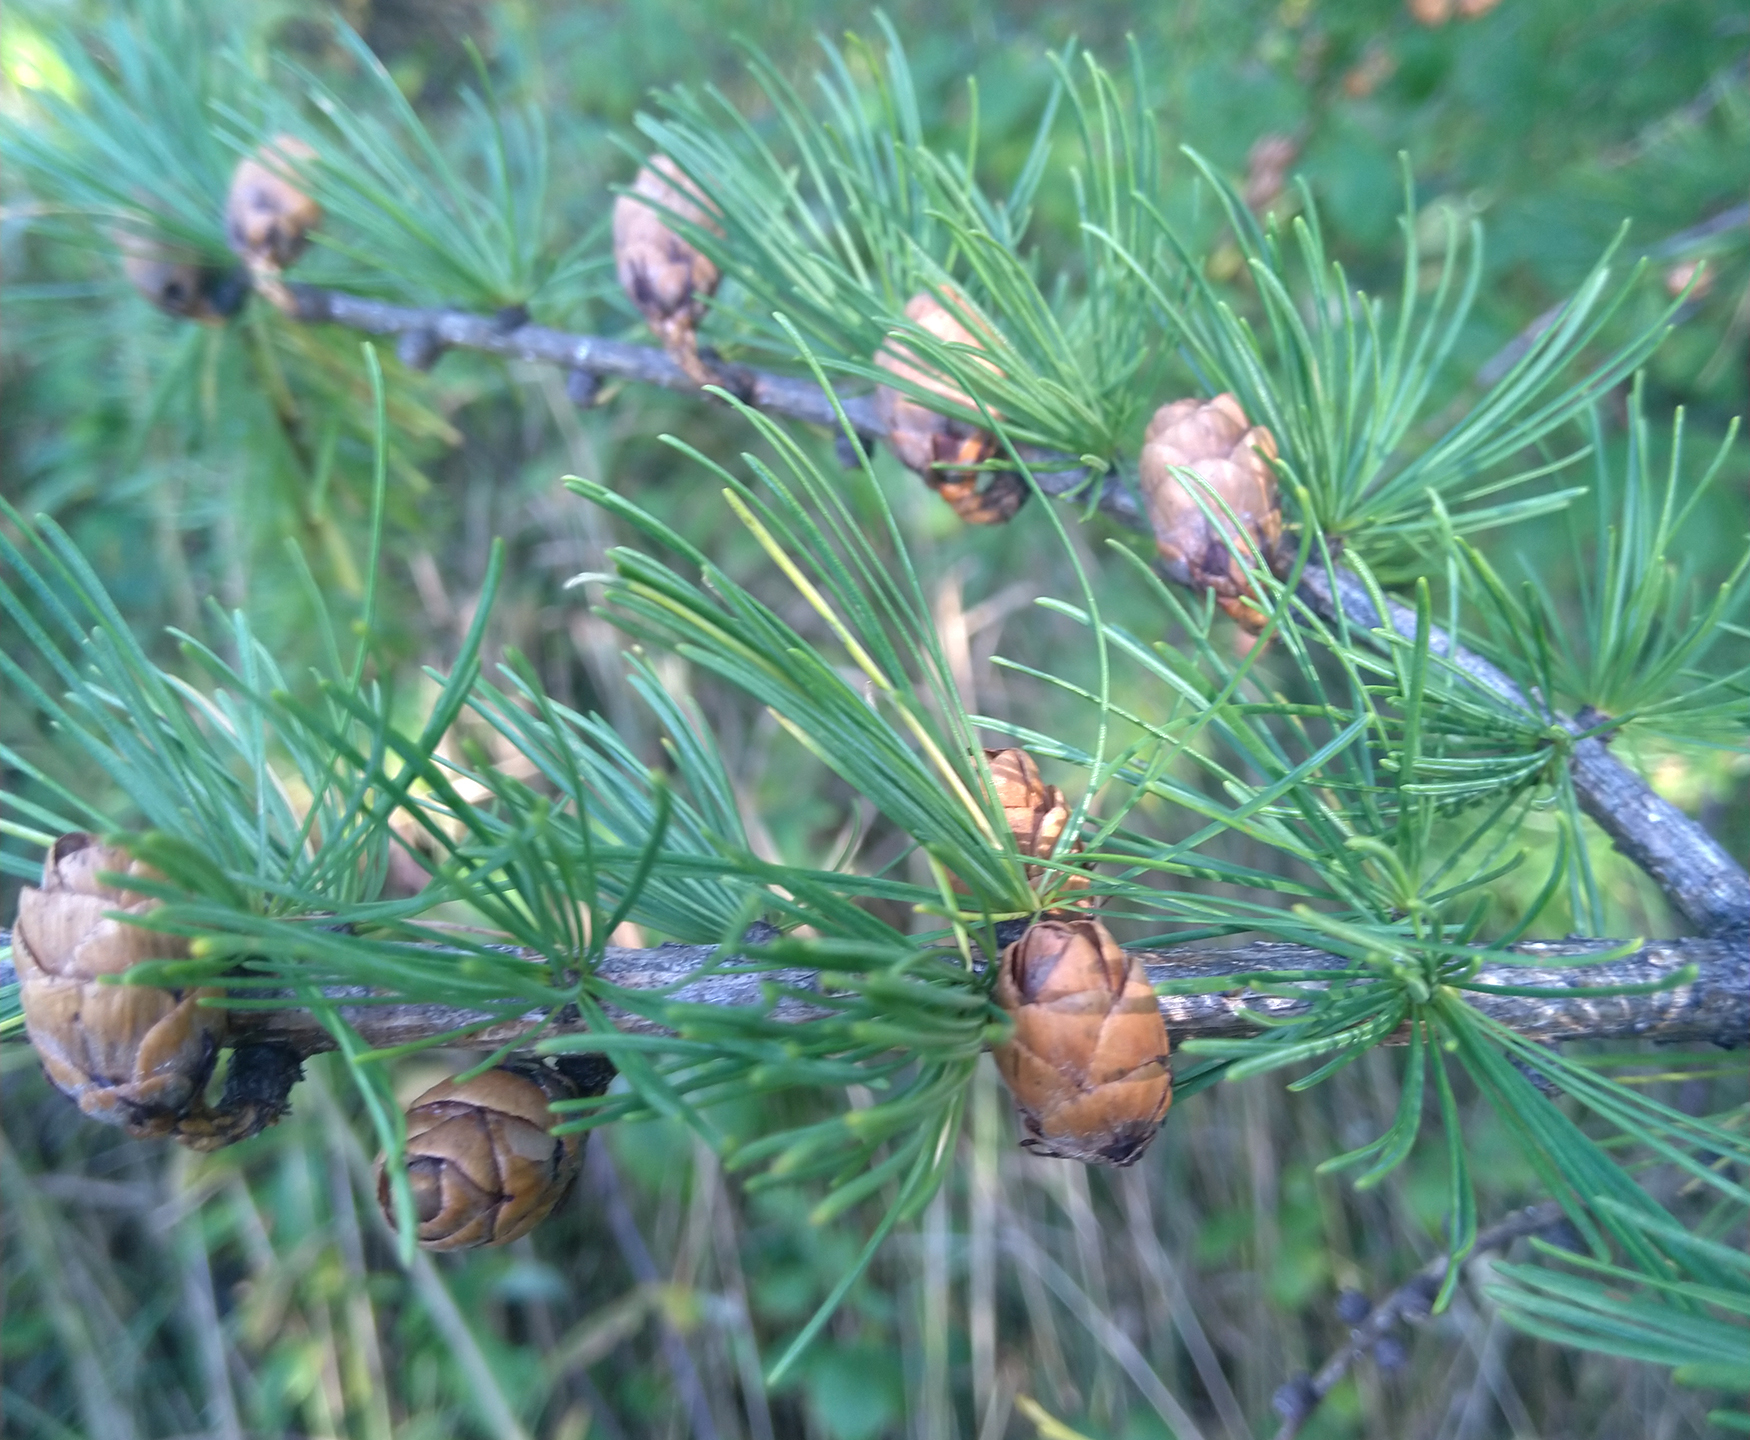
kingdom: Plantae
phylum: Tracheophyta
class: Pinopsida
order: Pinales
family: Pinaceae
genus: Larix
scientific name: Larix laricina
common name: American larch
